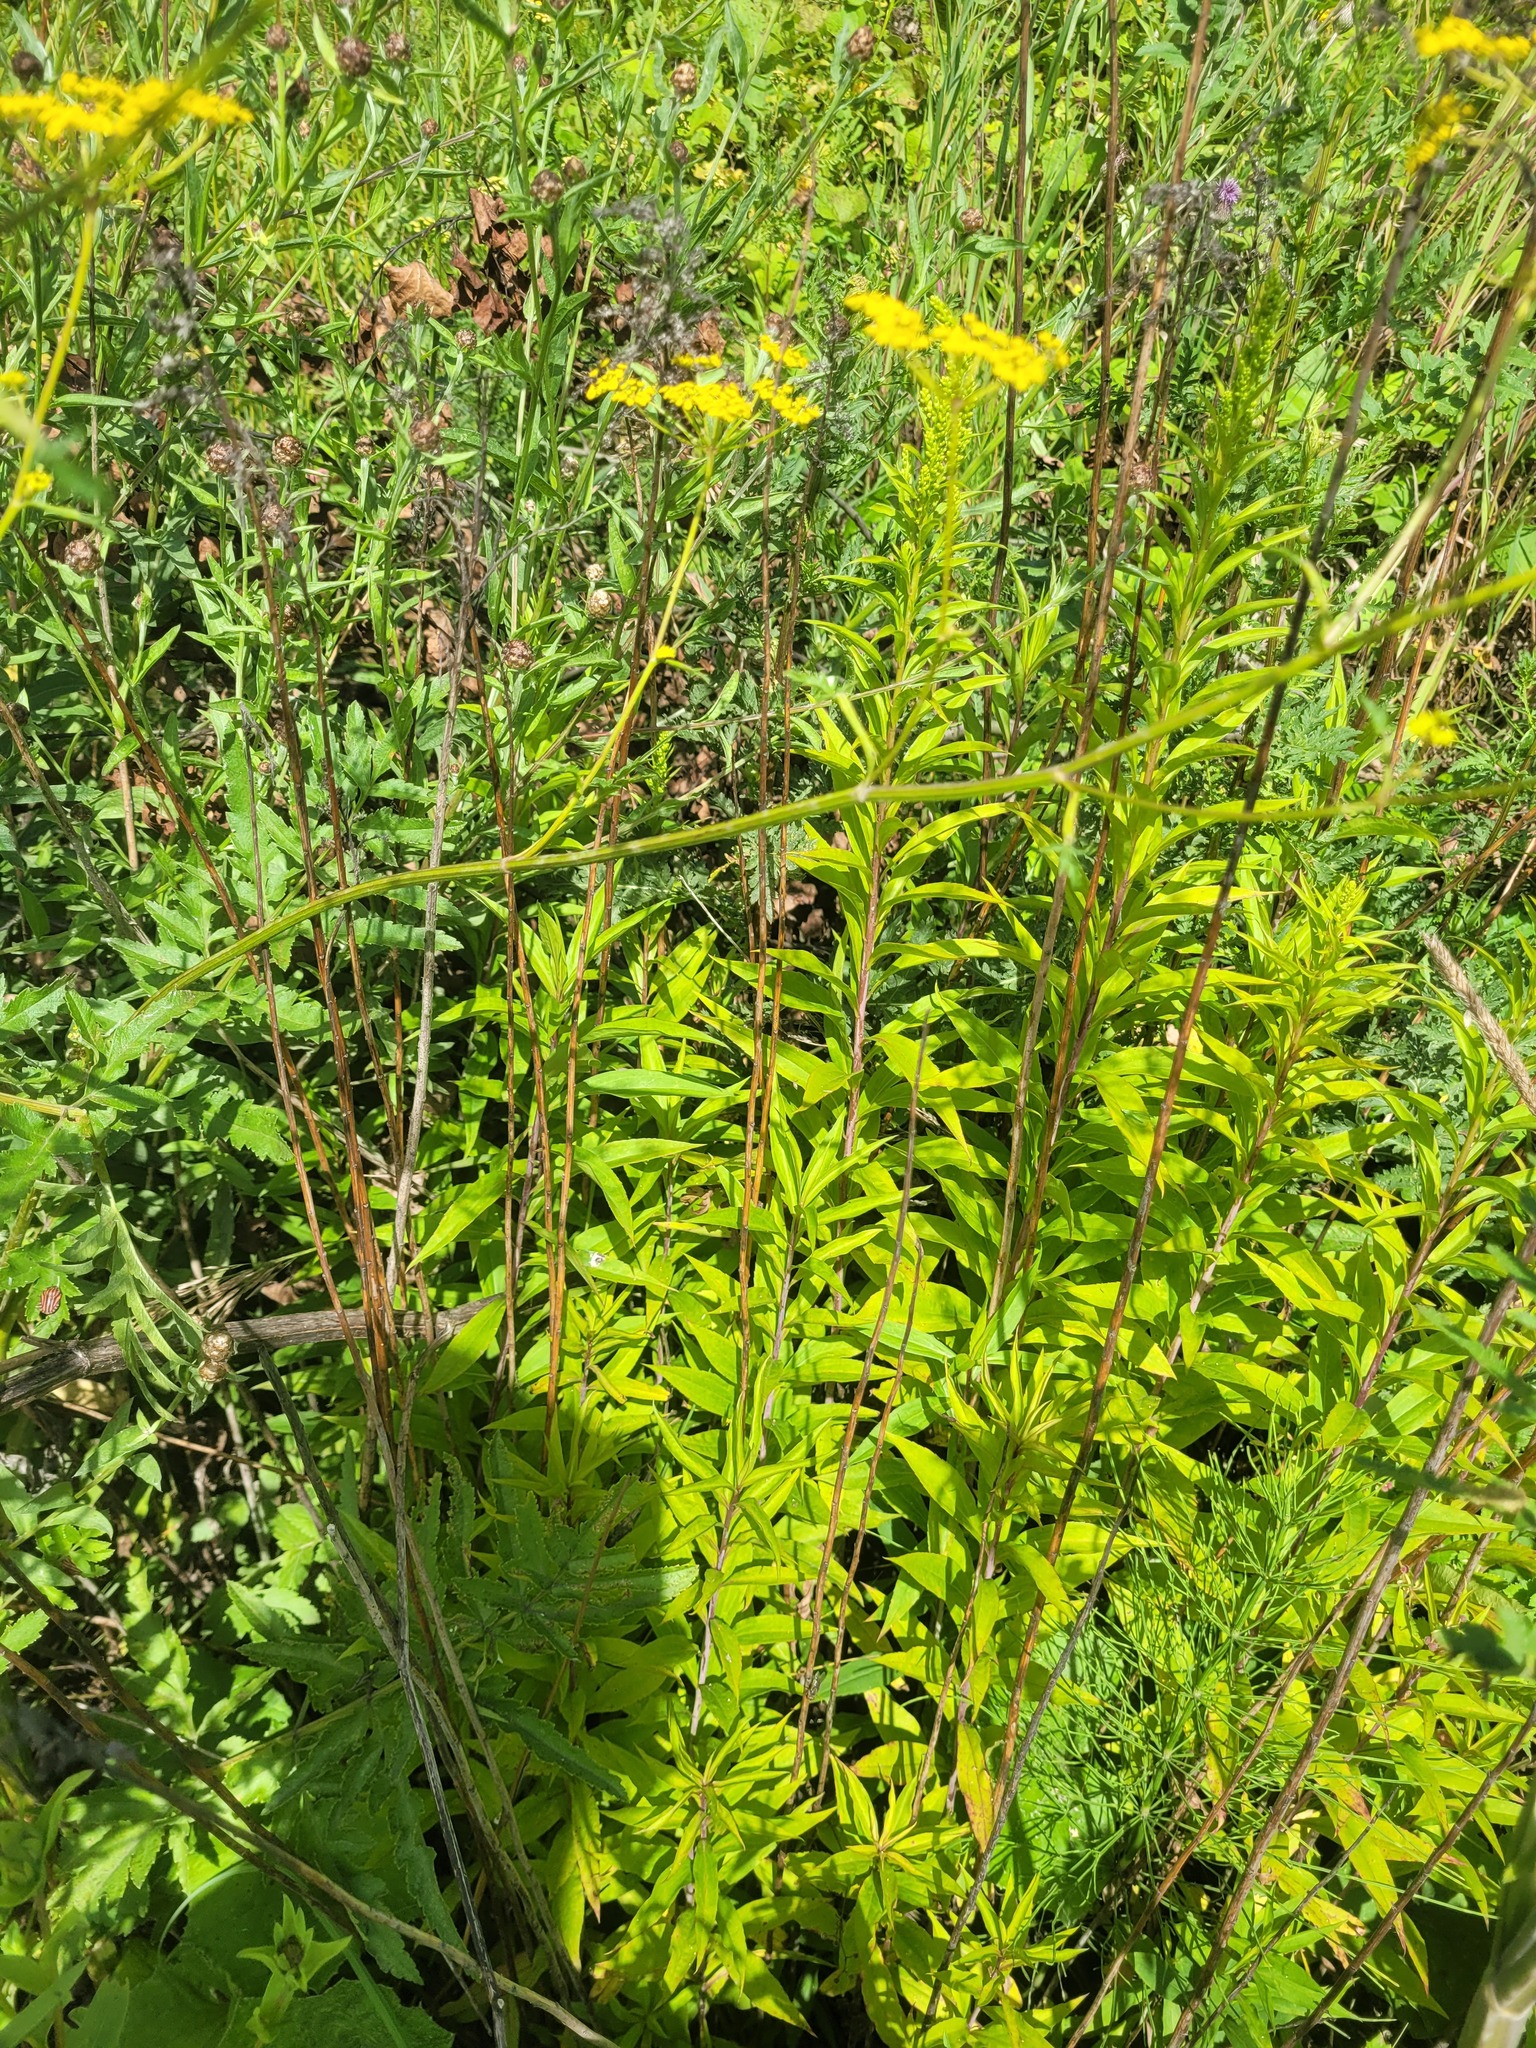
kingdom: Plantae
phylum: Tracheophyta
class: Magnoliopsida
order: Asterales
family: Asteraceae
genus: Solidago
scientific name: Solidago gigantea
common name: Giant goldenrod
